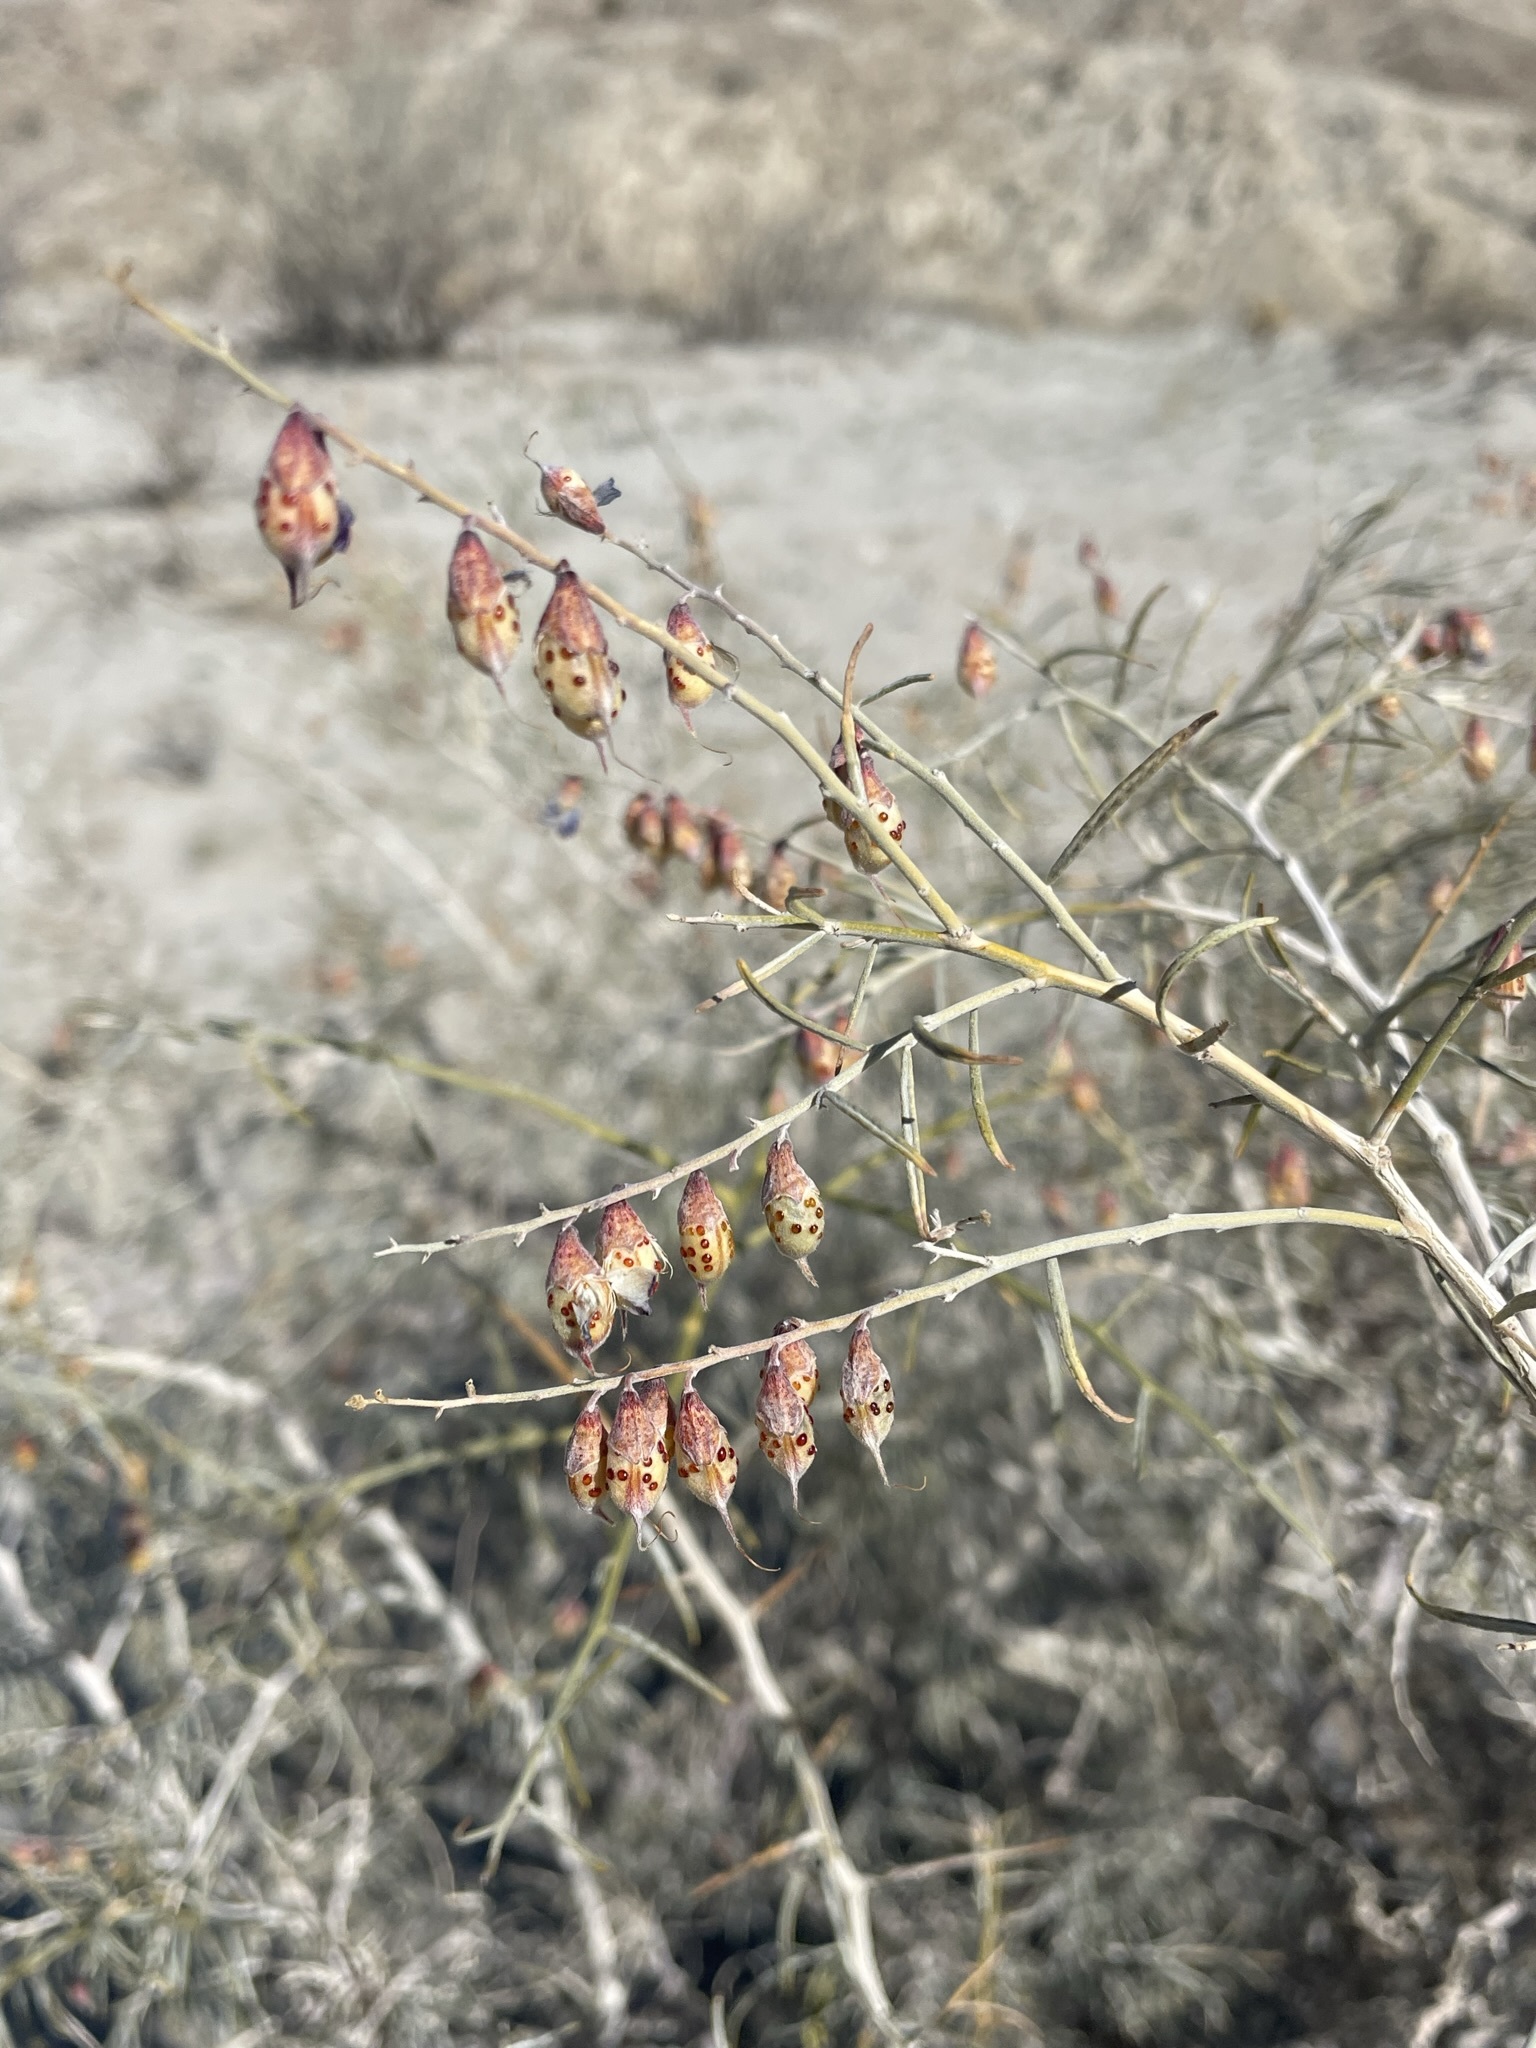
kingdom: Plantae
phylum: Tracheophyta
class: Magnoliopsida
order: Fabales
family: Fabaceae
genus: Psorothamnus
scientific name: Psorothamnus schottii
